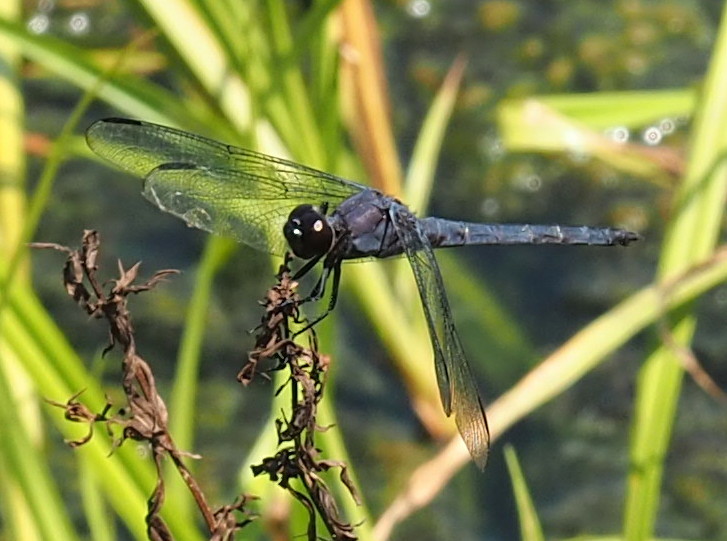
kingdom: Animalia
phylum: Arthropoda
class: Insecta
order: Odonata
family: Libellulidae
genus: Libellula
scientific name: Libellula incesta
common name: Slaty skimmer
